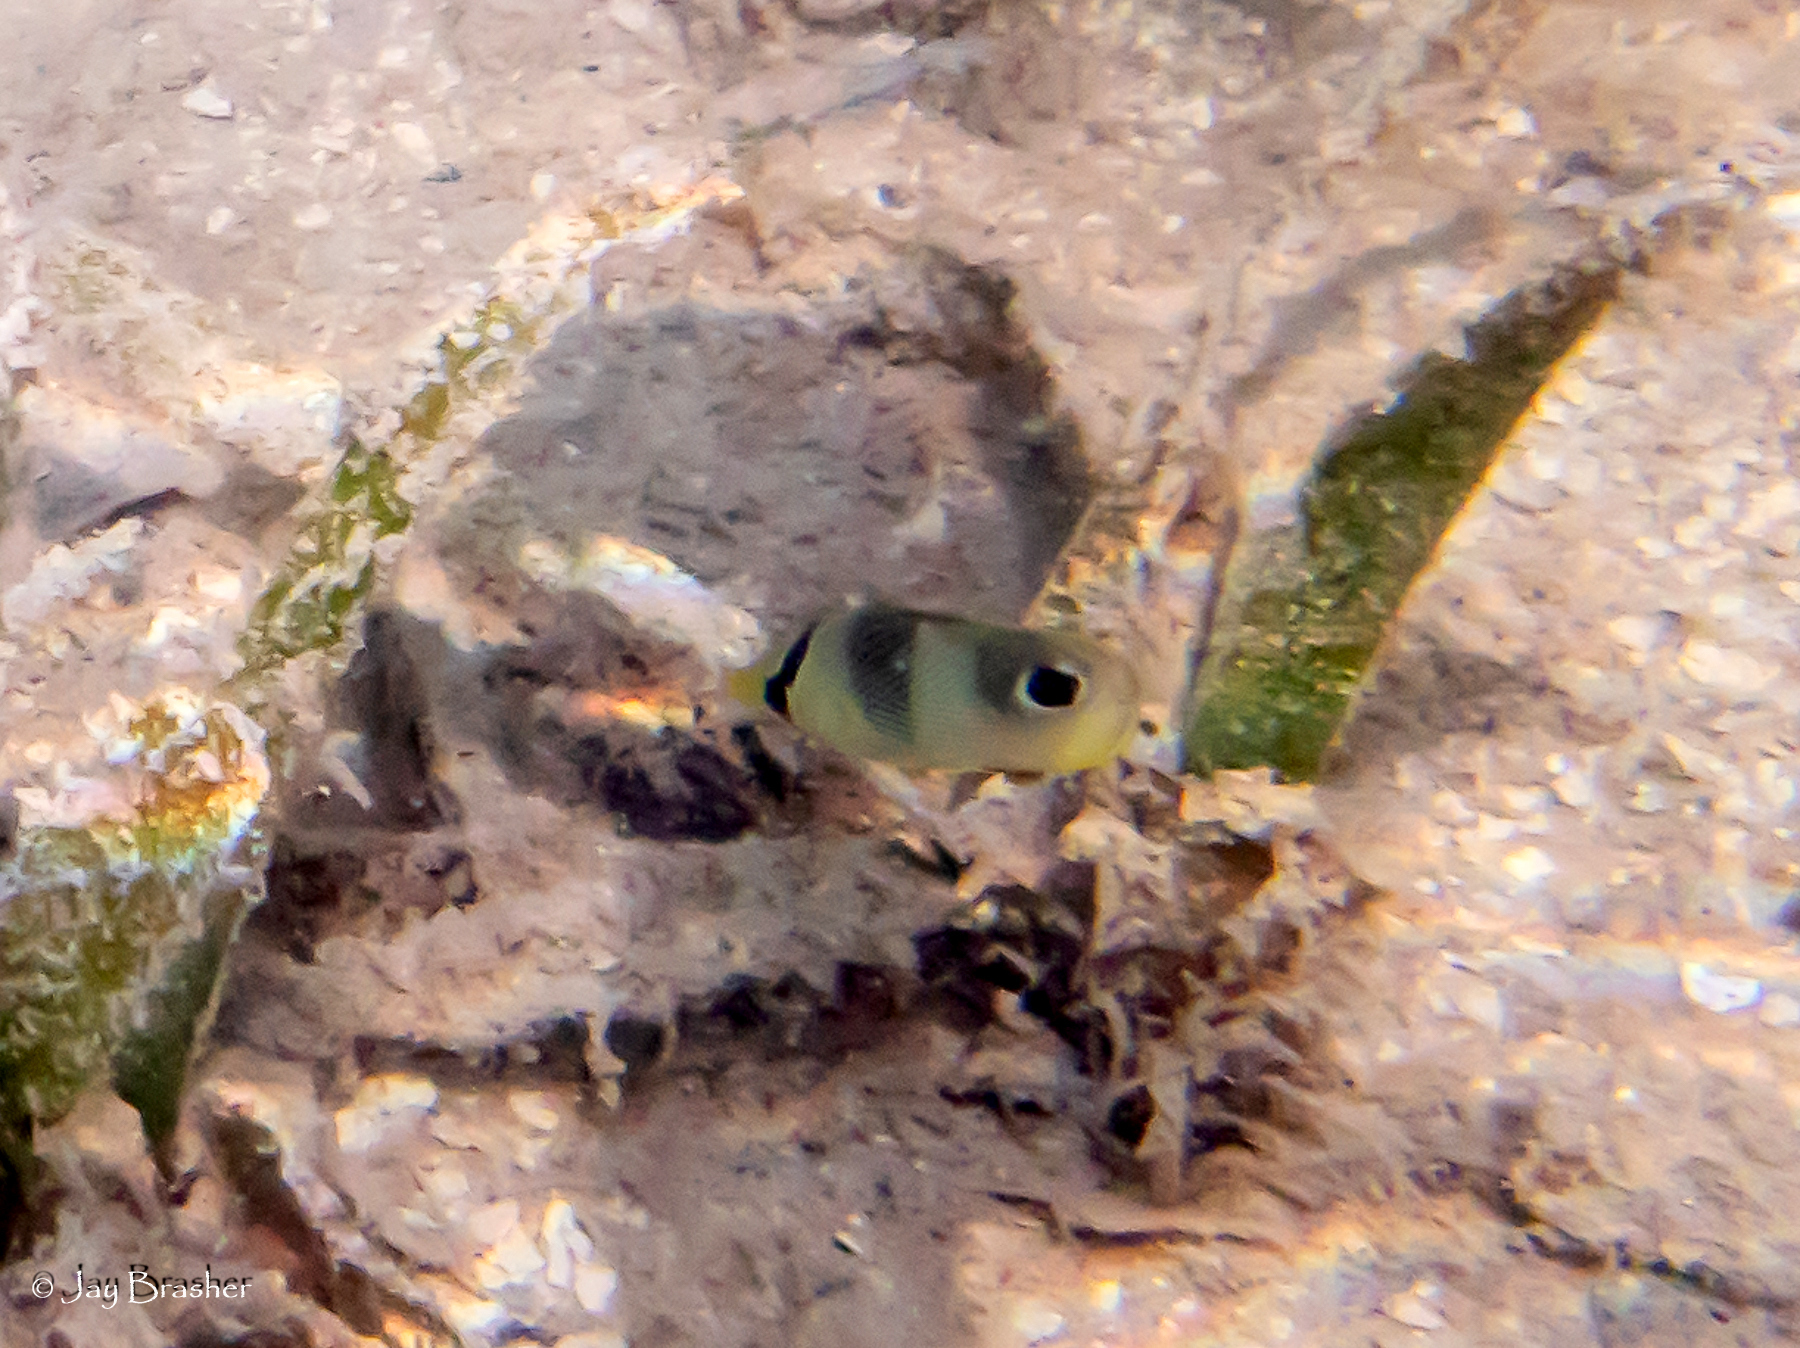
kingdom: Animalia
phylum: Chordata
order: Perciformes
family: Chaetodontidae
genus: Chaetodon
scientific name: Chaetodon capistratus
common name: Kete
